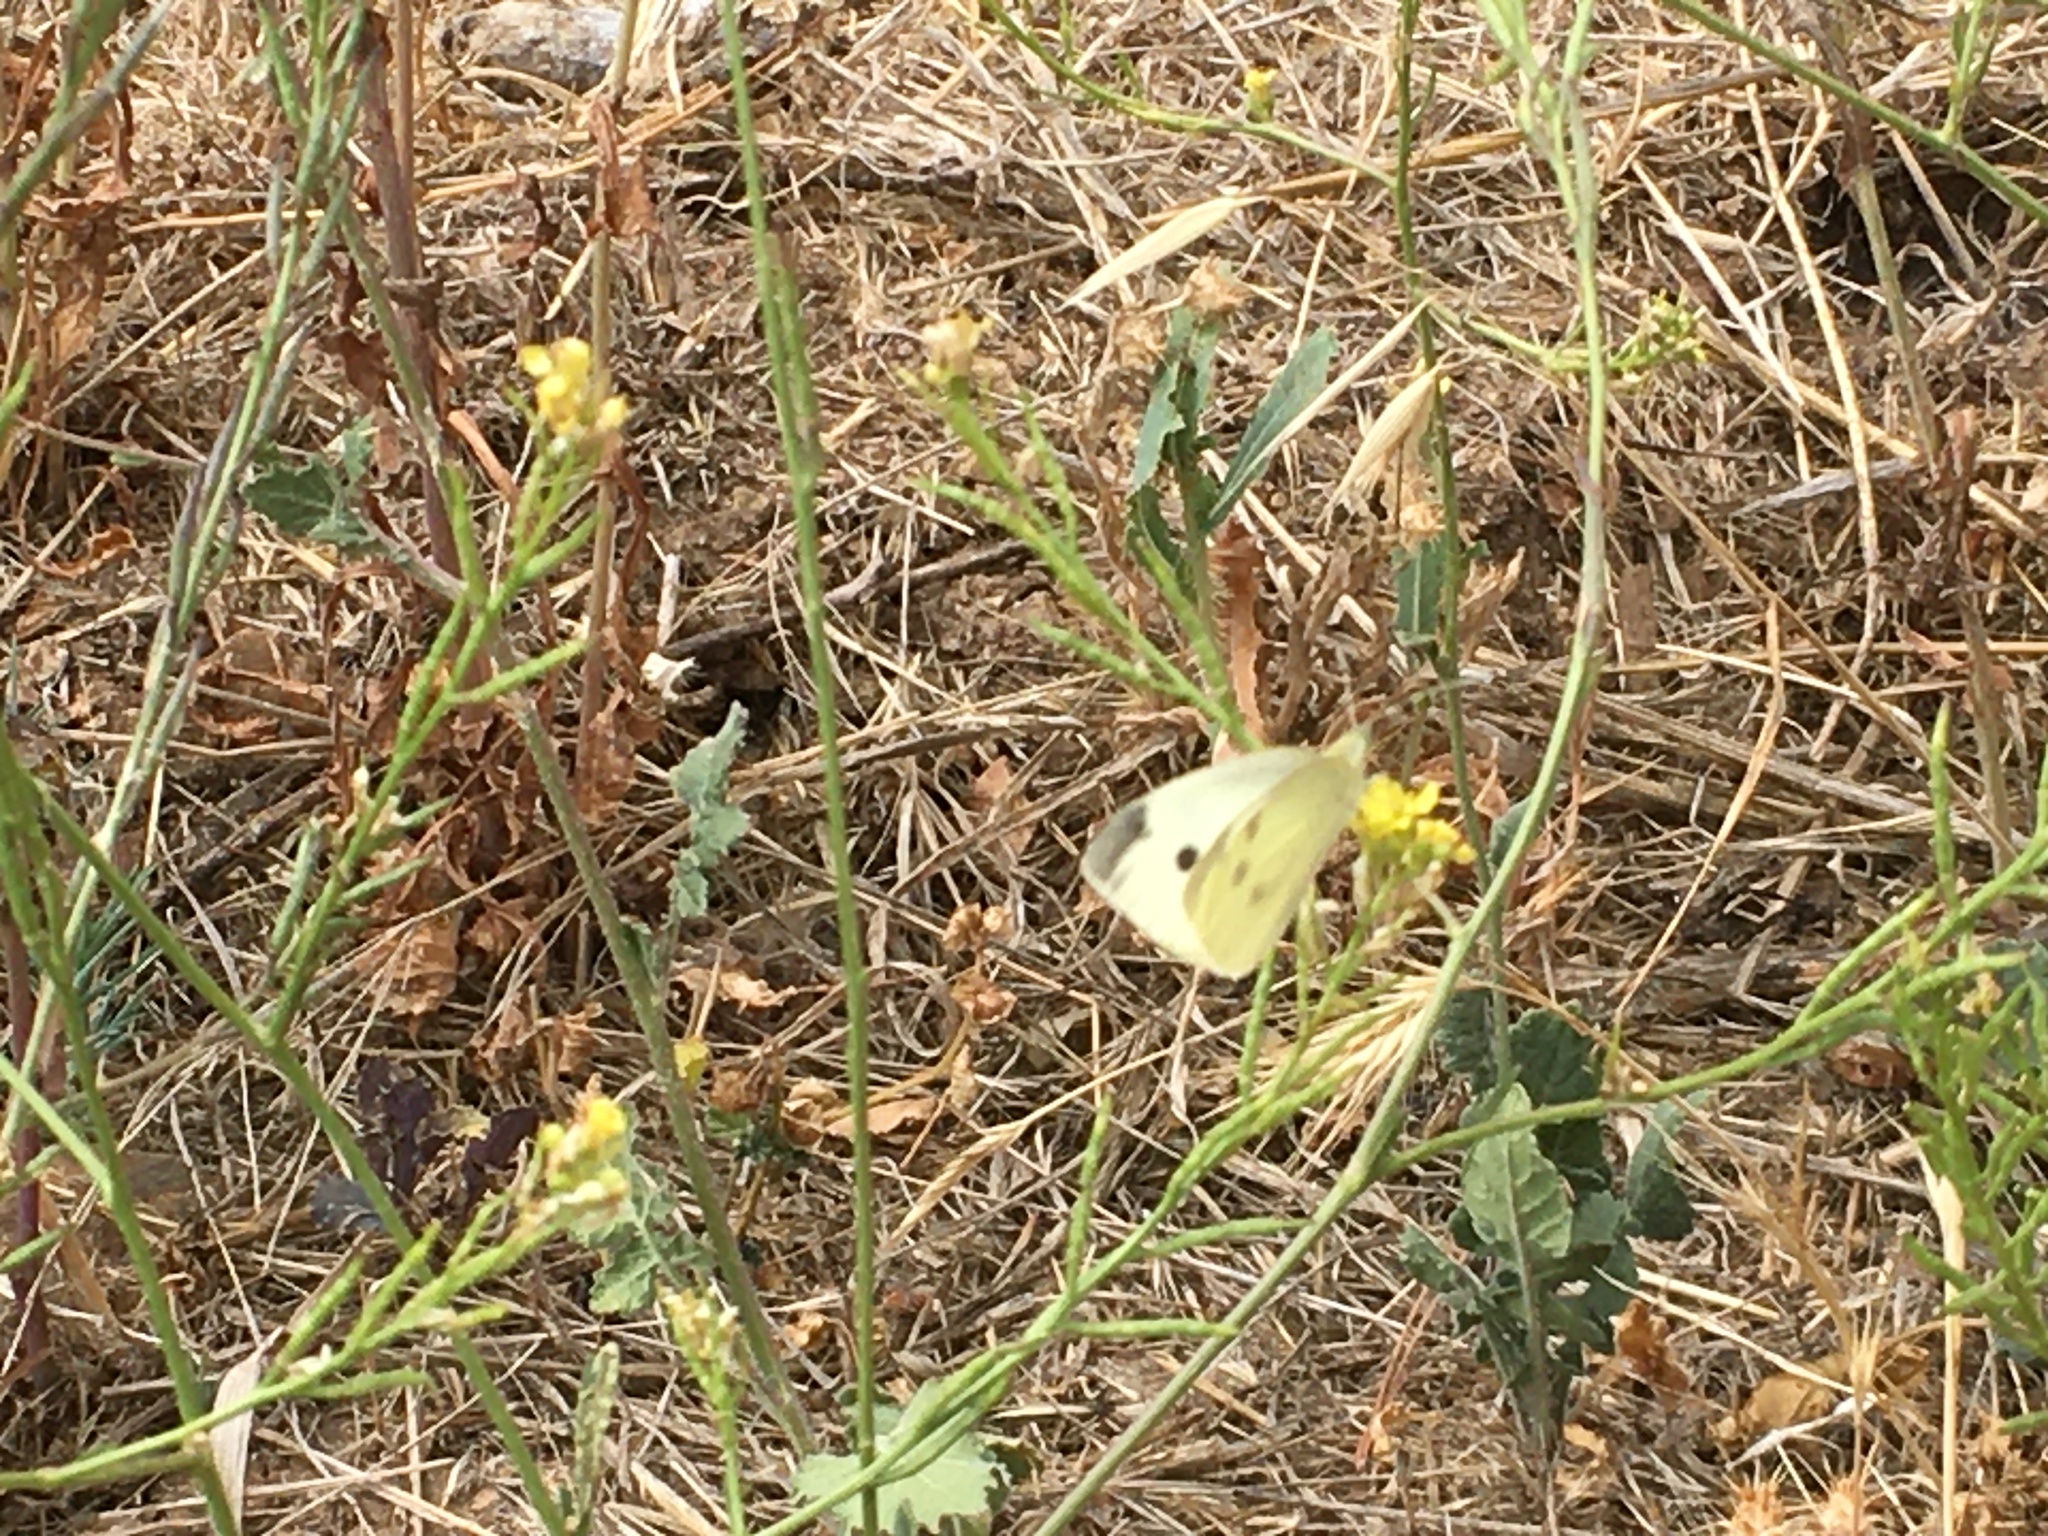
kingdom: Animalia
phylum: Arthropoda
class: Insecta
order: Lepidoptera
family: Pieridae
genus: Pieris
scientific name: Pieris rapae
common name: Small white
